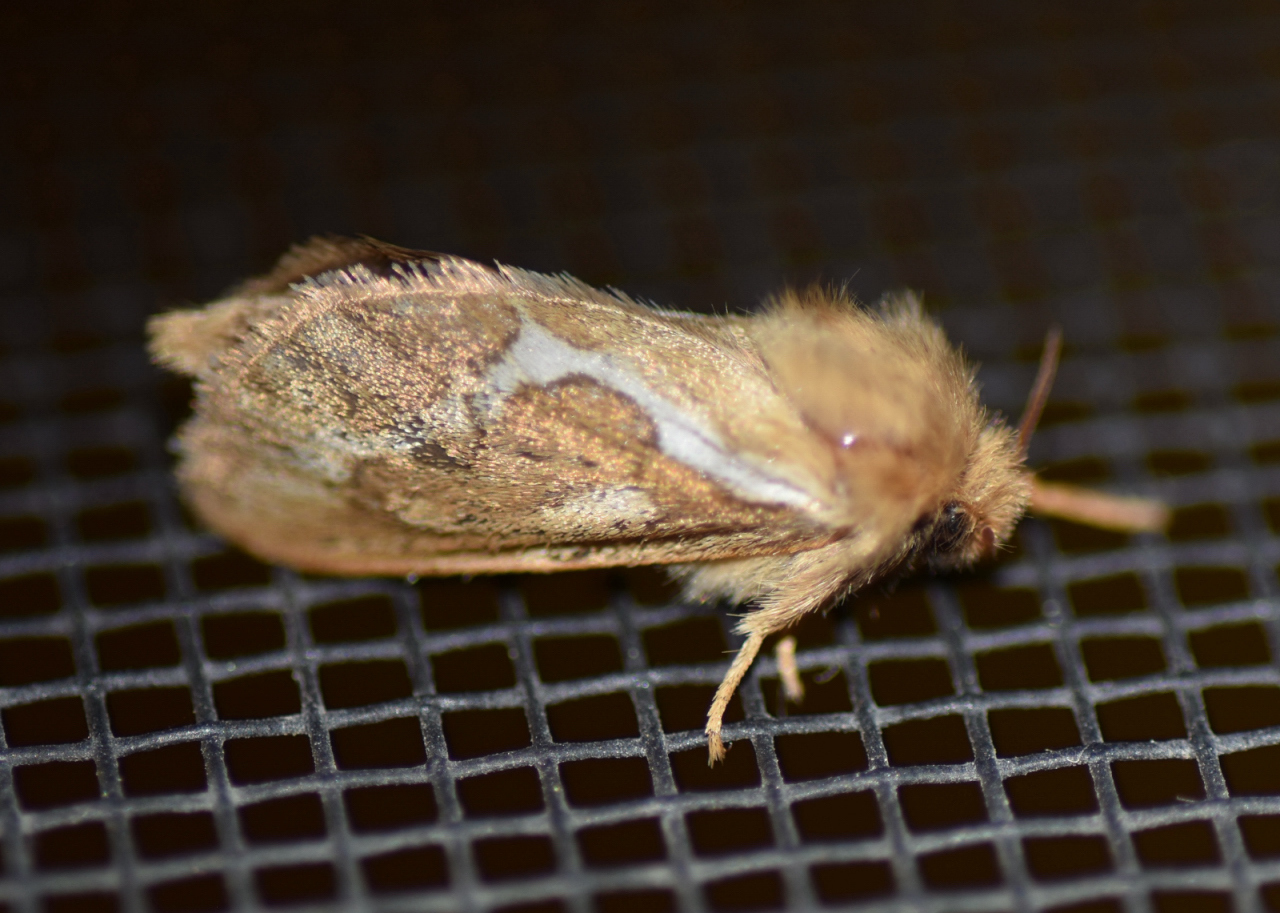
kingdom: Animalia
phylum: Arthropoda
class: Insecta
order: Lepidoptera
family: Hepialidae
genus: Korscheltellus
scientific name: Korscheltellus lupulina
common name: Common swift
